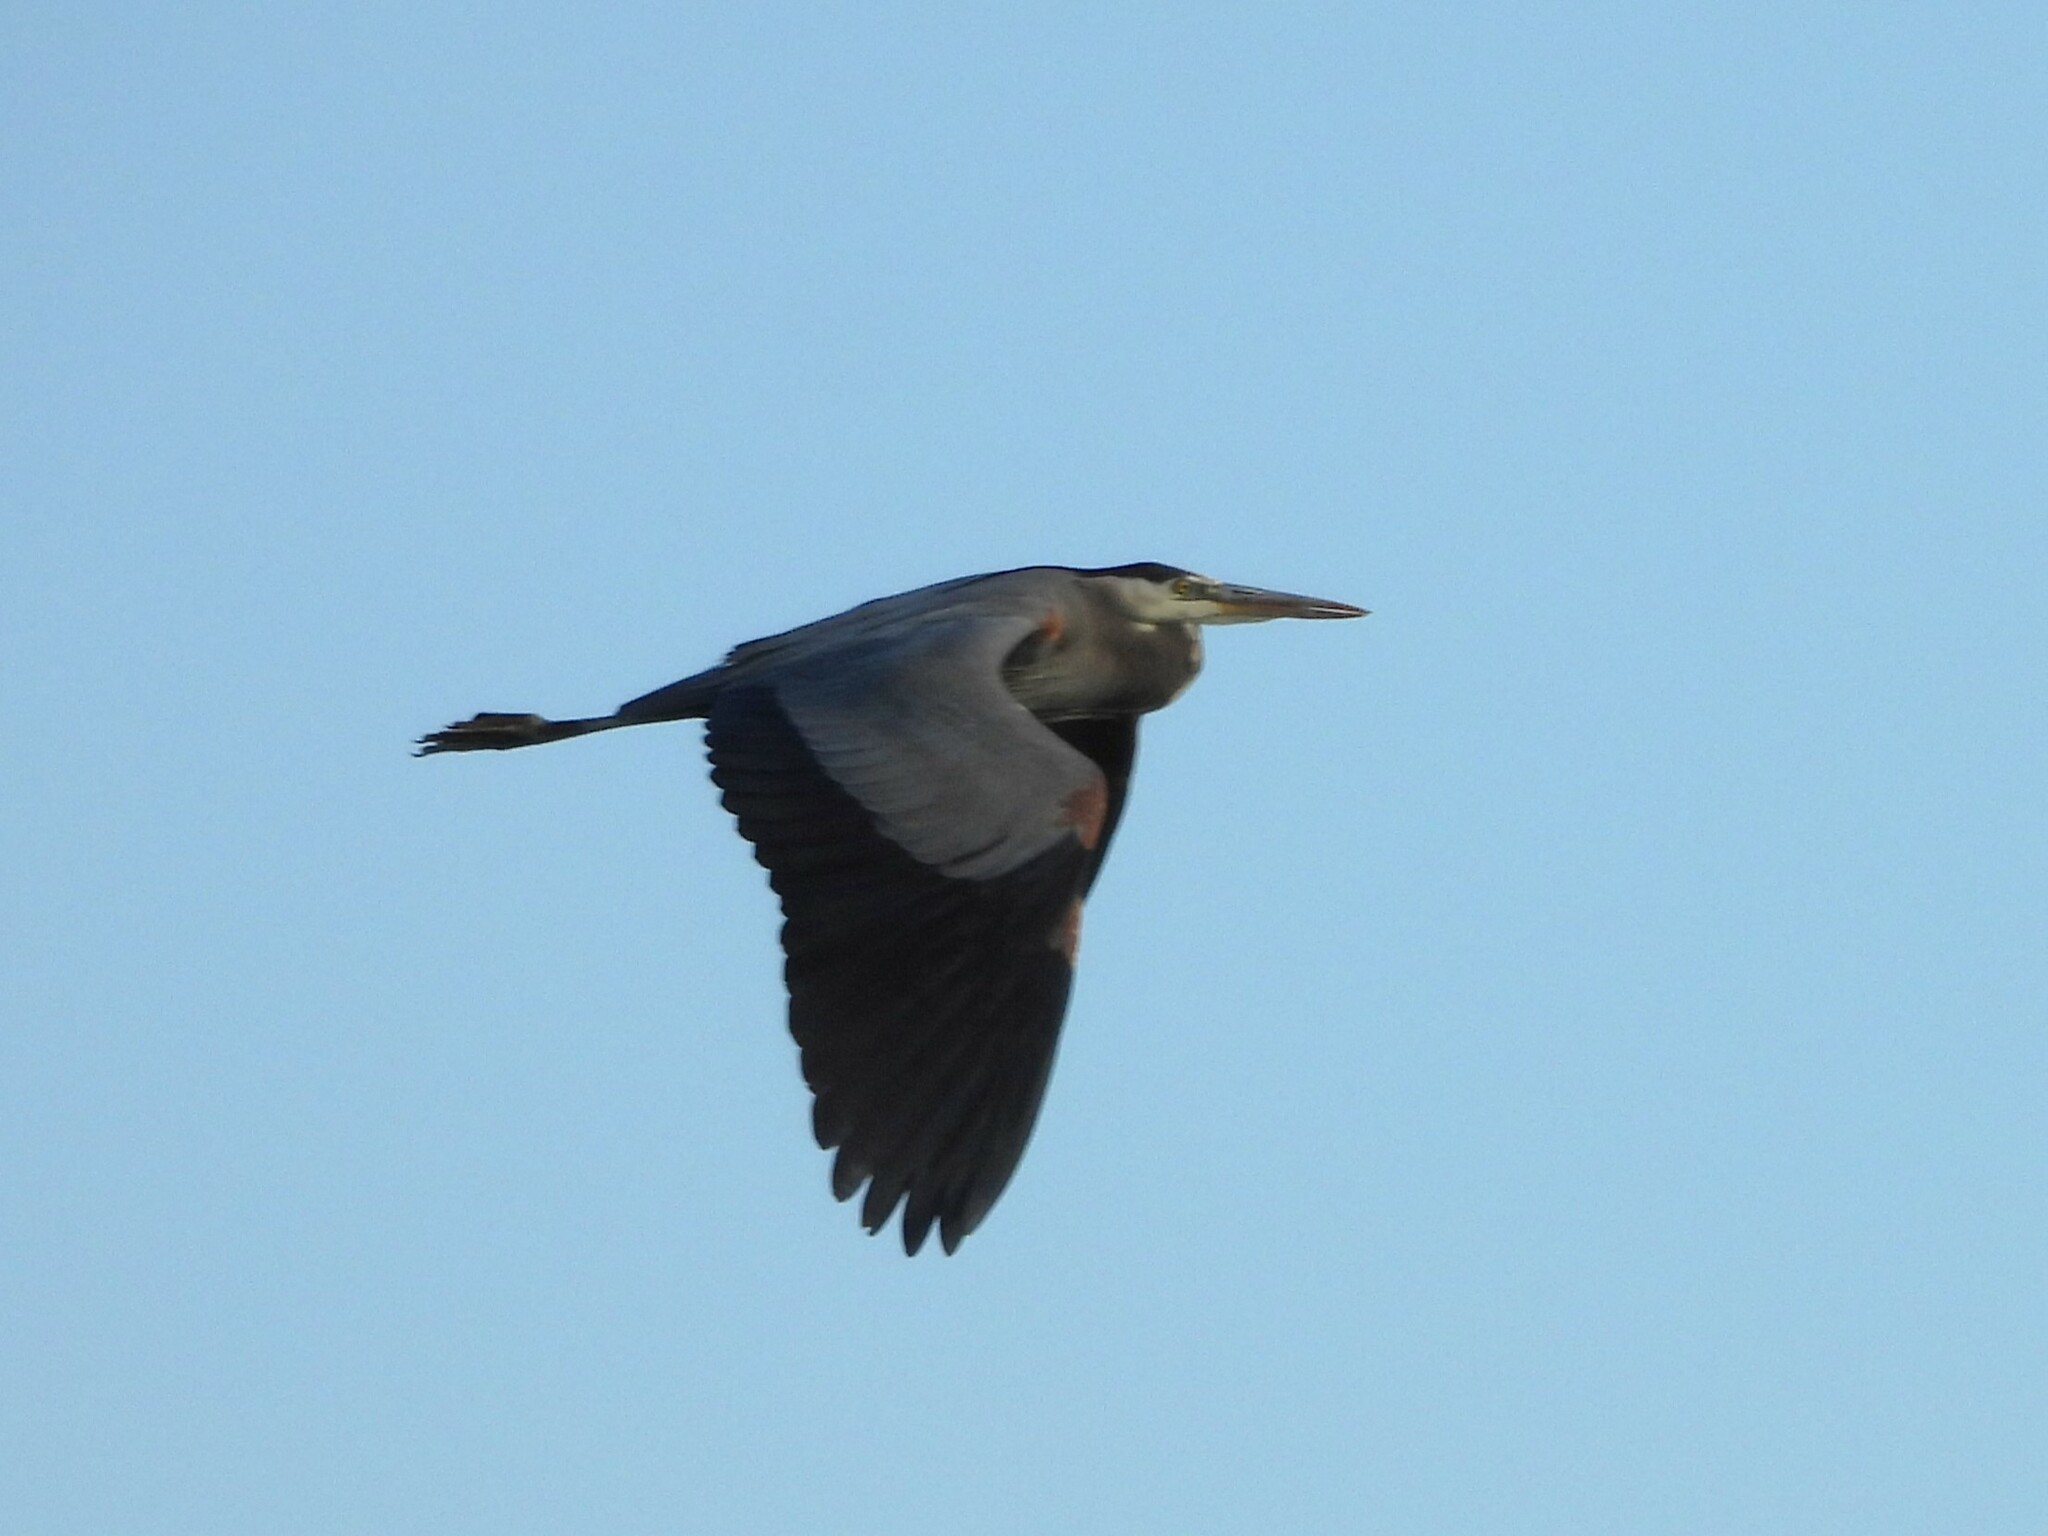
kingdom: Animalia
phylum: Chordata
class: Aves
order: Pelecaniformes
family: Ardeidae
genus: Ardea
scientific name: Ardea herodias
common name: Great blue heron
